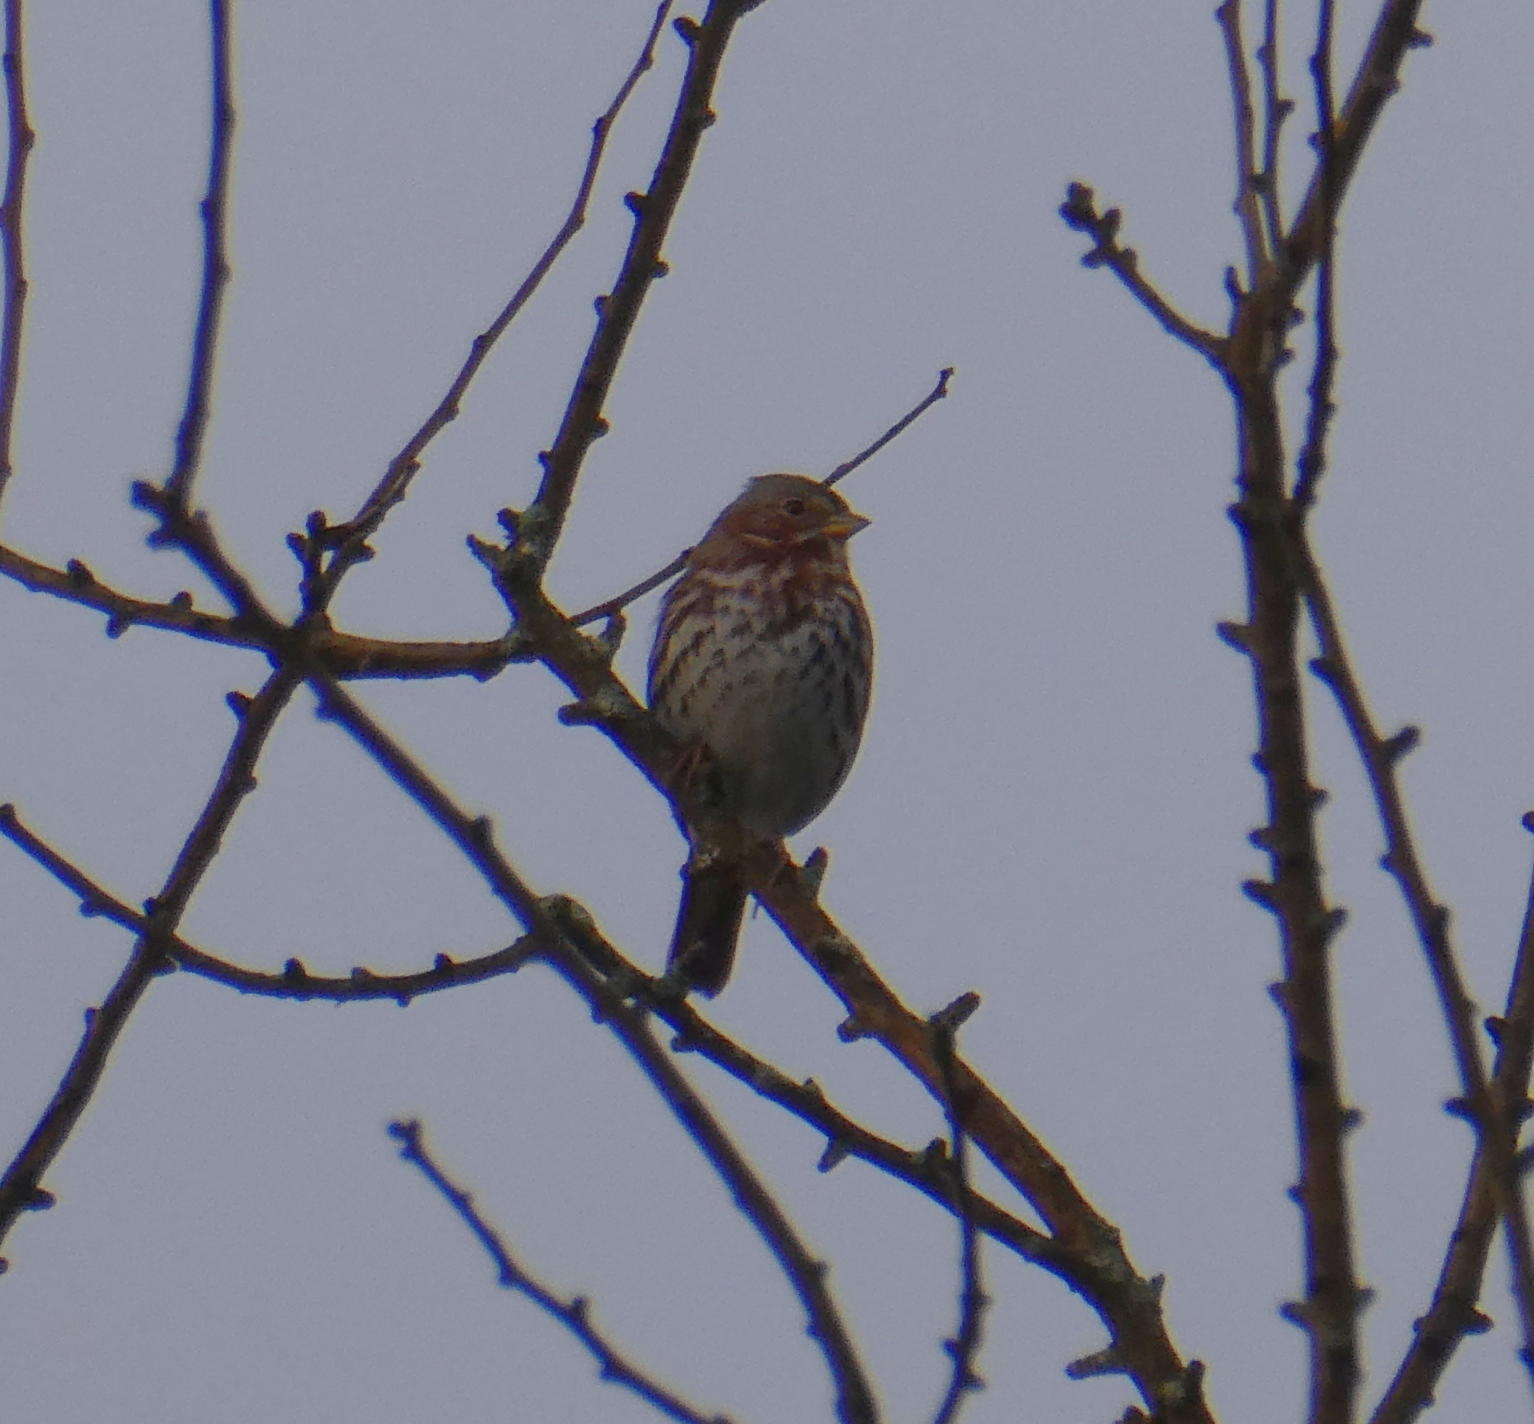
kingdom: Animalia
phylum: Chordata
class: Aves
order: Passeriformes
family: Passerellidae
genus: Passerella
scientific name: Passerella iliaca
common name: Fox sparrow
